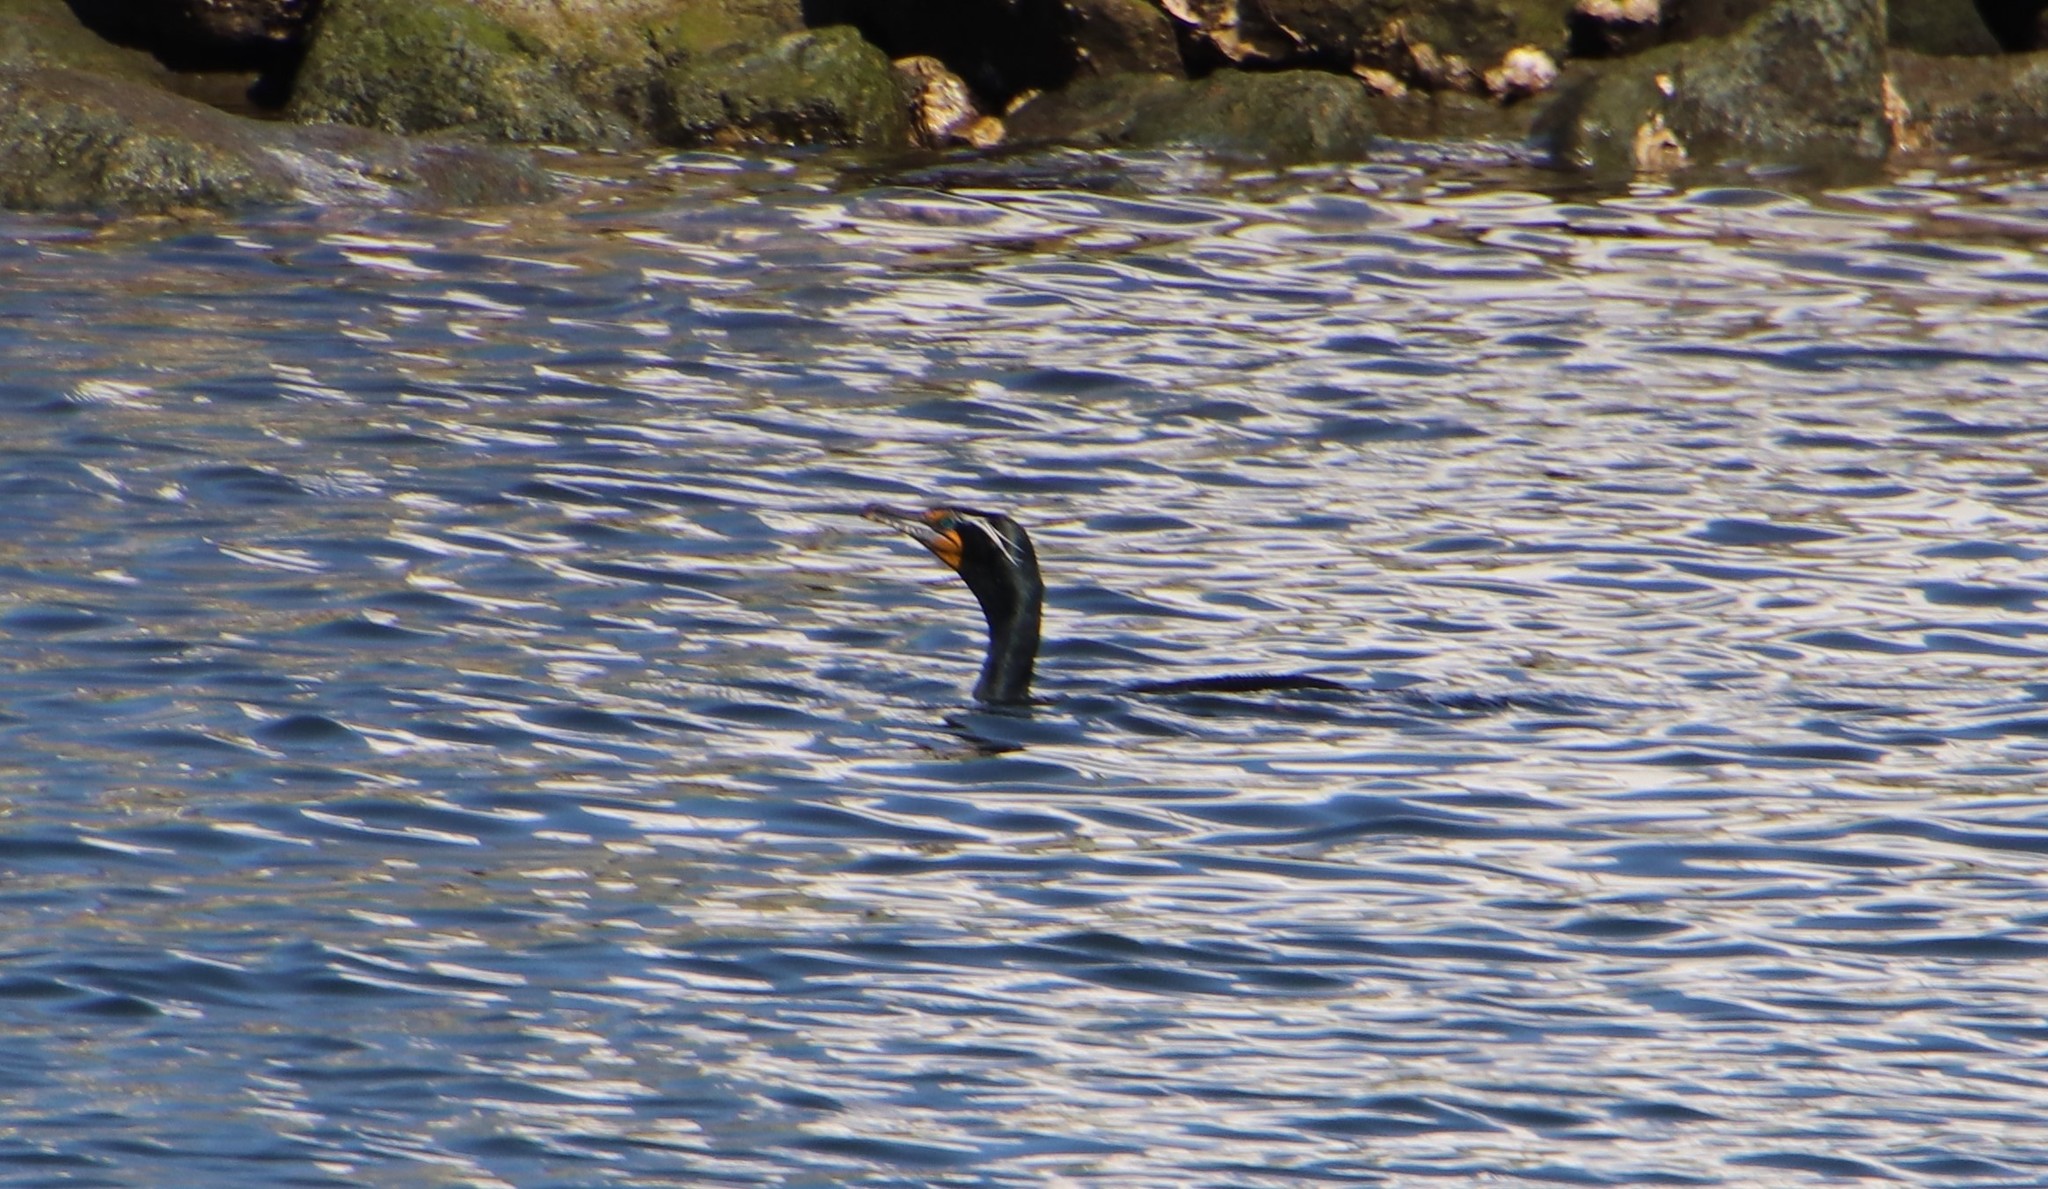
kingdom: Animalia
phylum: Chordata
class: Aves
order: Suliformes
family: Phalacrocoracidae
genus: Phalacrocorax
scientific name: Phalacrocorax auritus
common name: Double-crested cormorant
